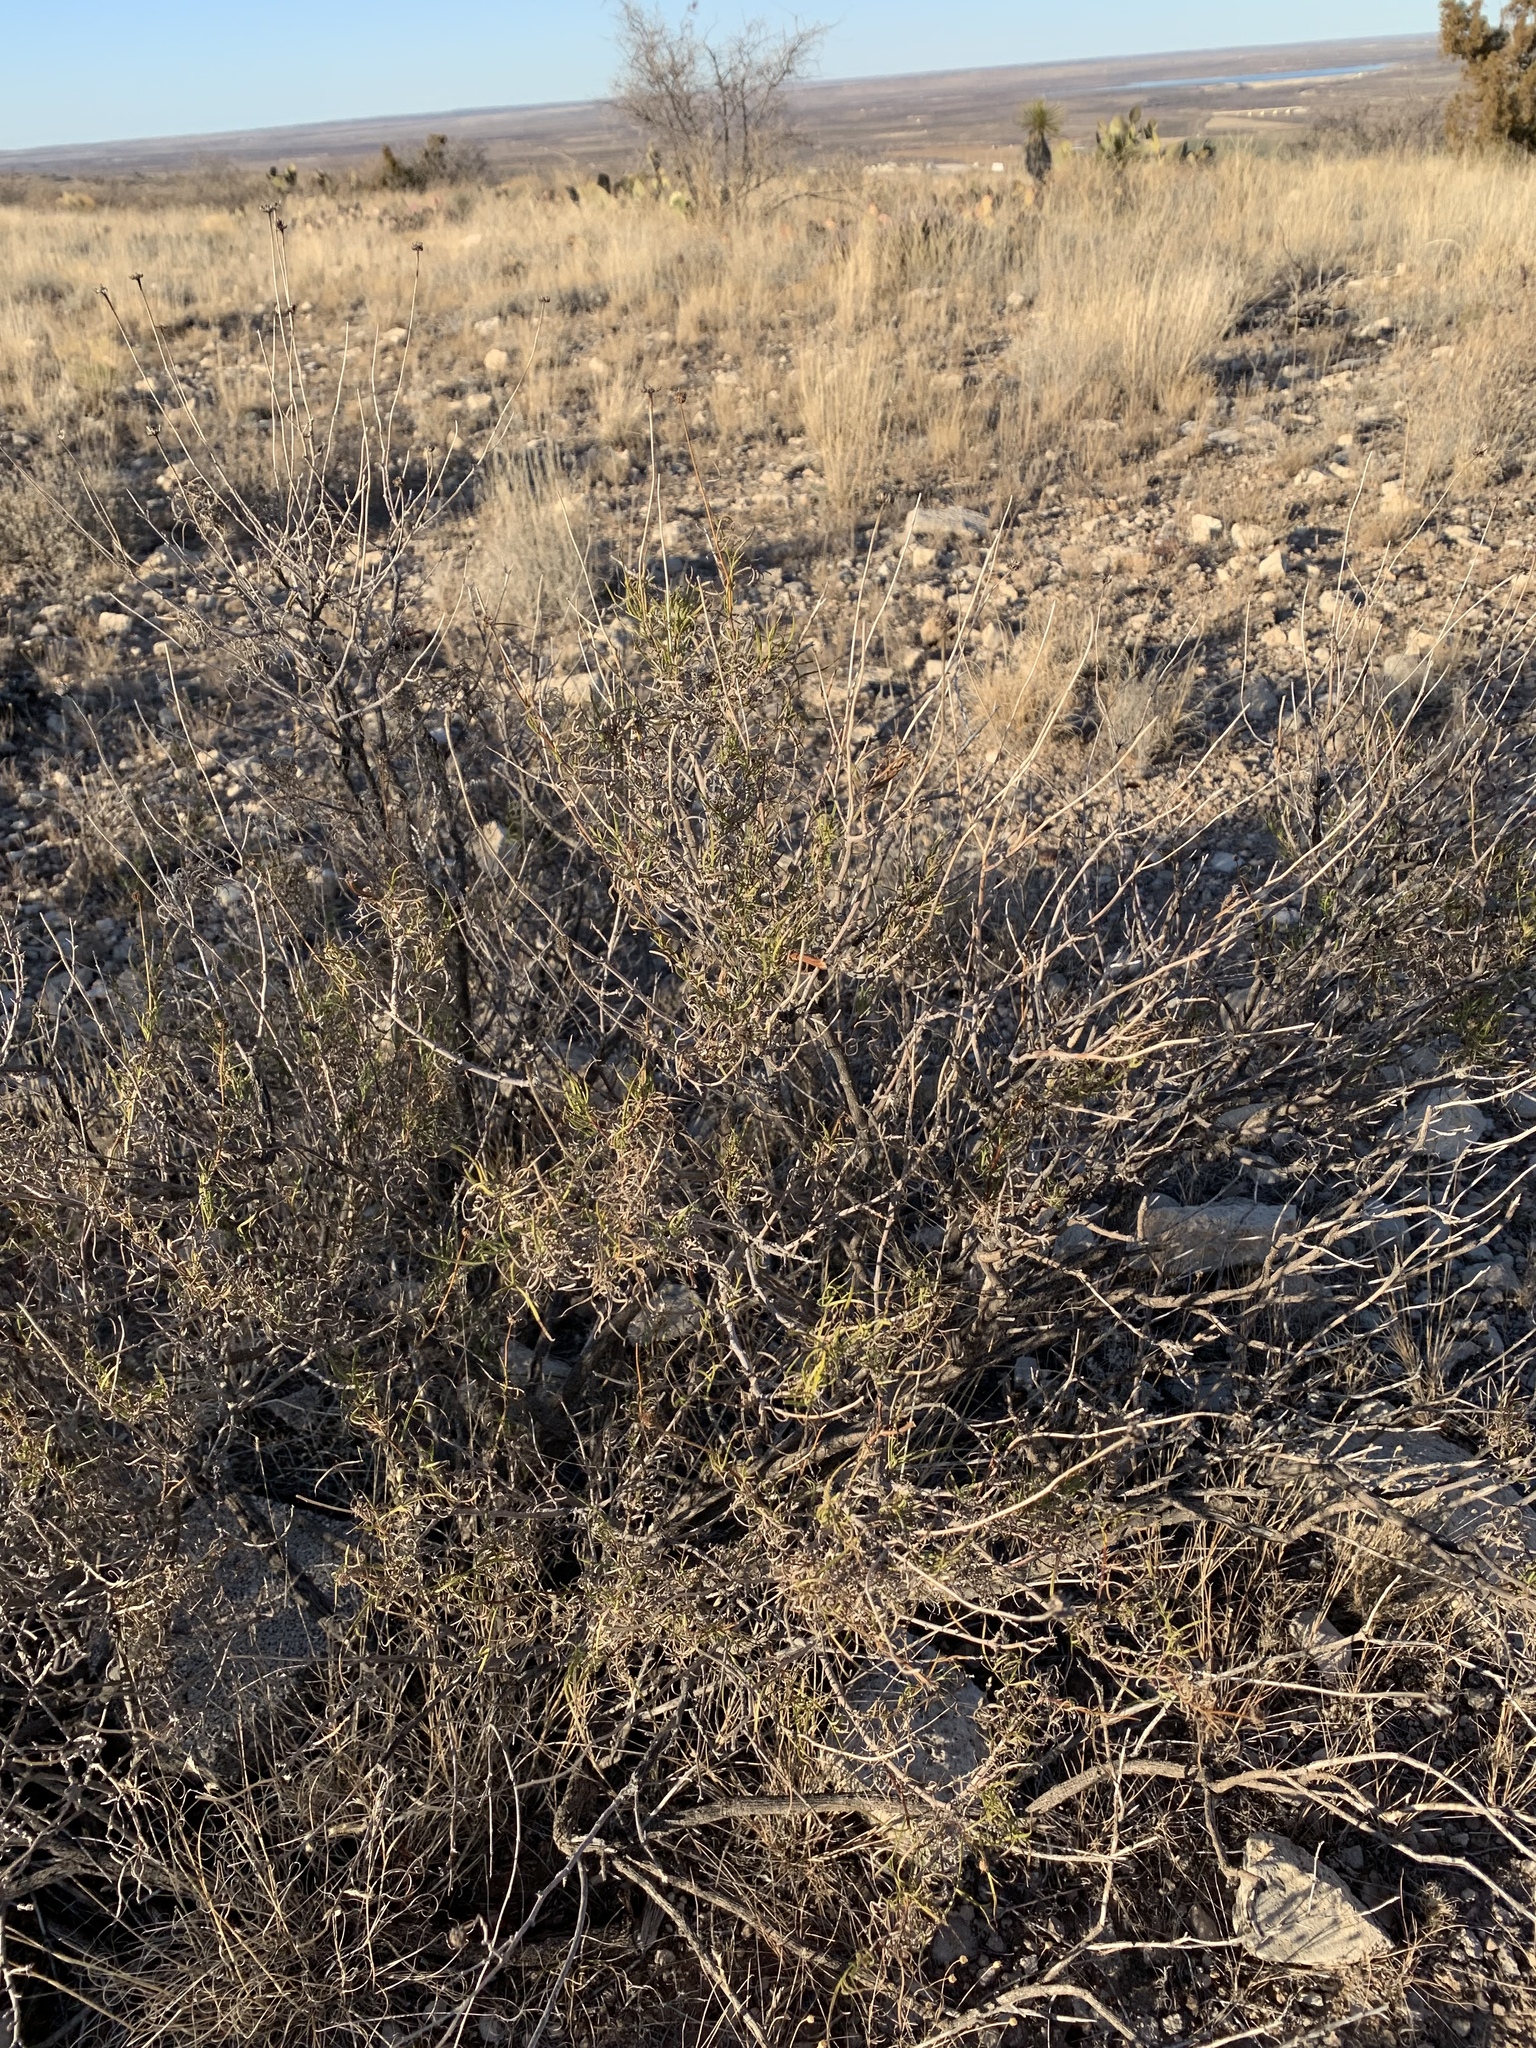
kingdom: Plantae
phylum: Tracheophyta
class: Magnoliopsida
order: Asterales
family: Asteraceae
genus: Sidneya
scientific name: Sidneya tenuifolia
